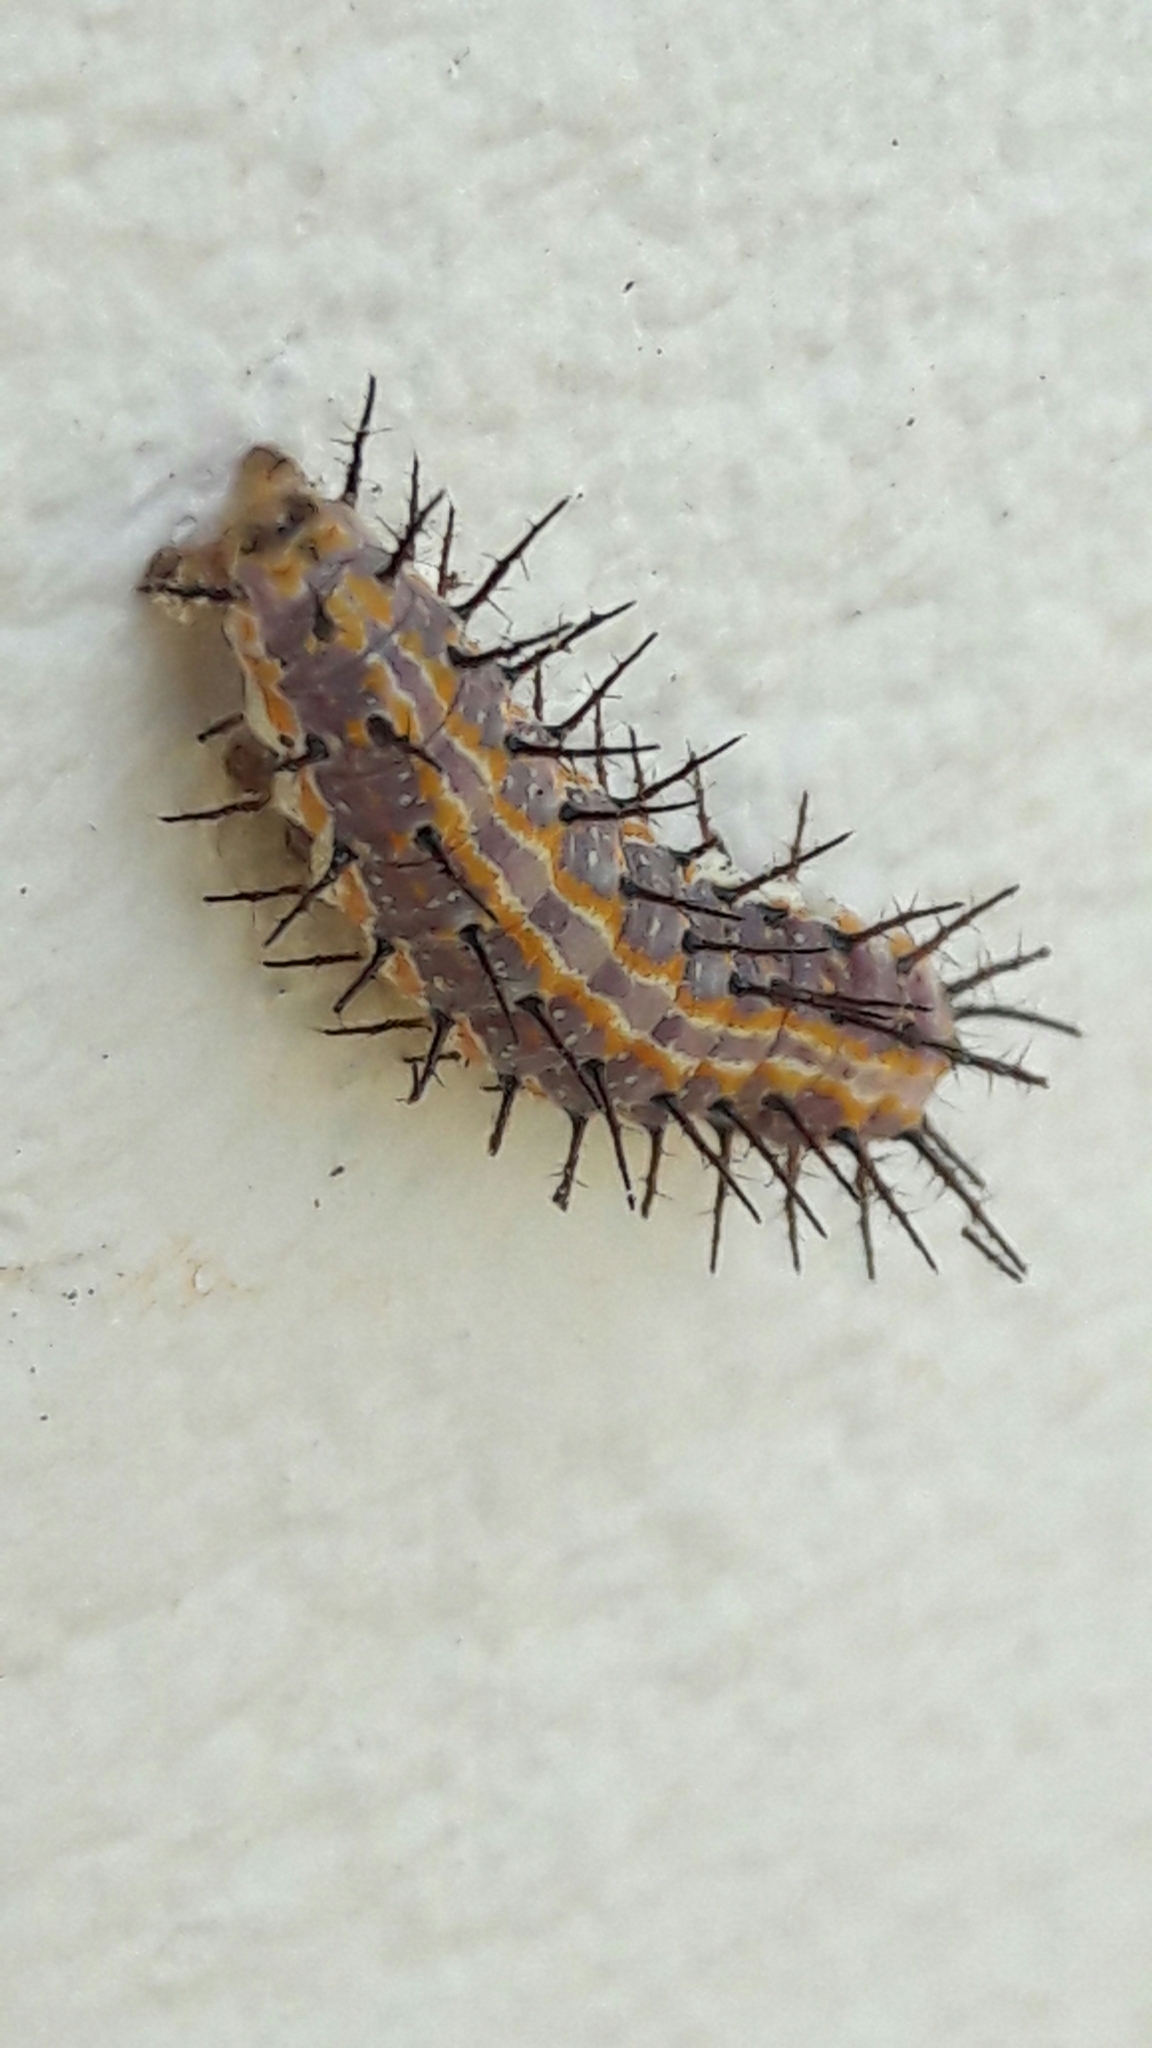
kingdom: Animalia
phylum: Arthropoda
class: Insecta
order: Lepidoptera
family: Nymphalidae
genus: Dione
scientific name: Dione vanillae
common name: Gulf fritillary
